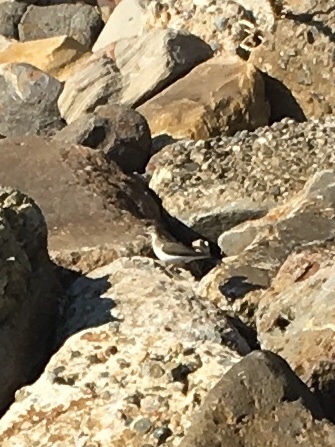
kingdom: Animalia
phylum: Chordata
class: Aves
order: Charadriiformes
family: Scolopacidae
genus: Actitis
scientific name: Actitis macularius
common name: Spotted sandpiper
